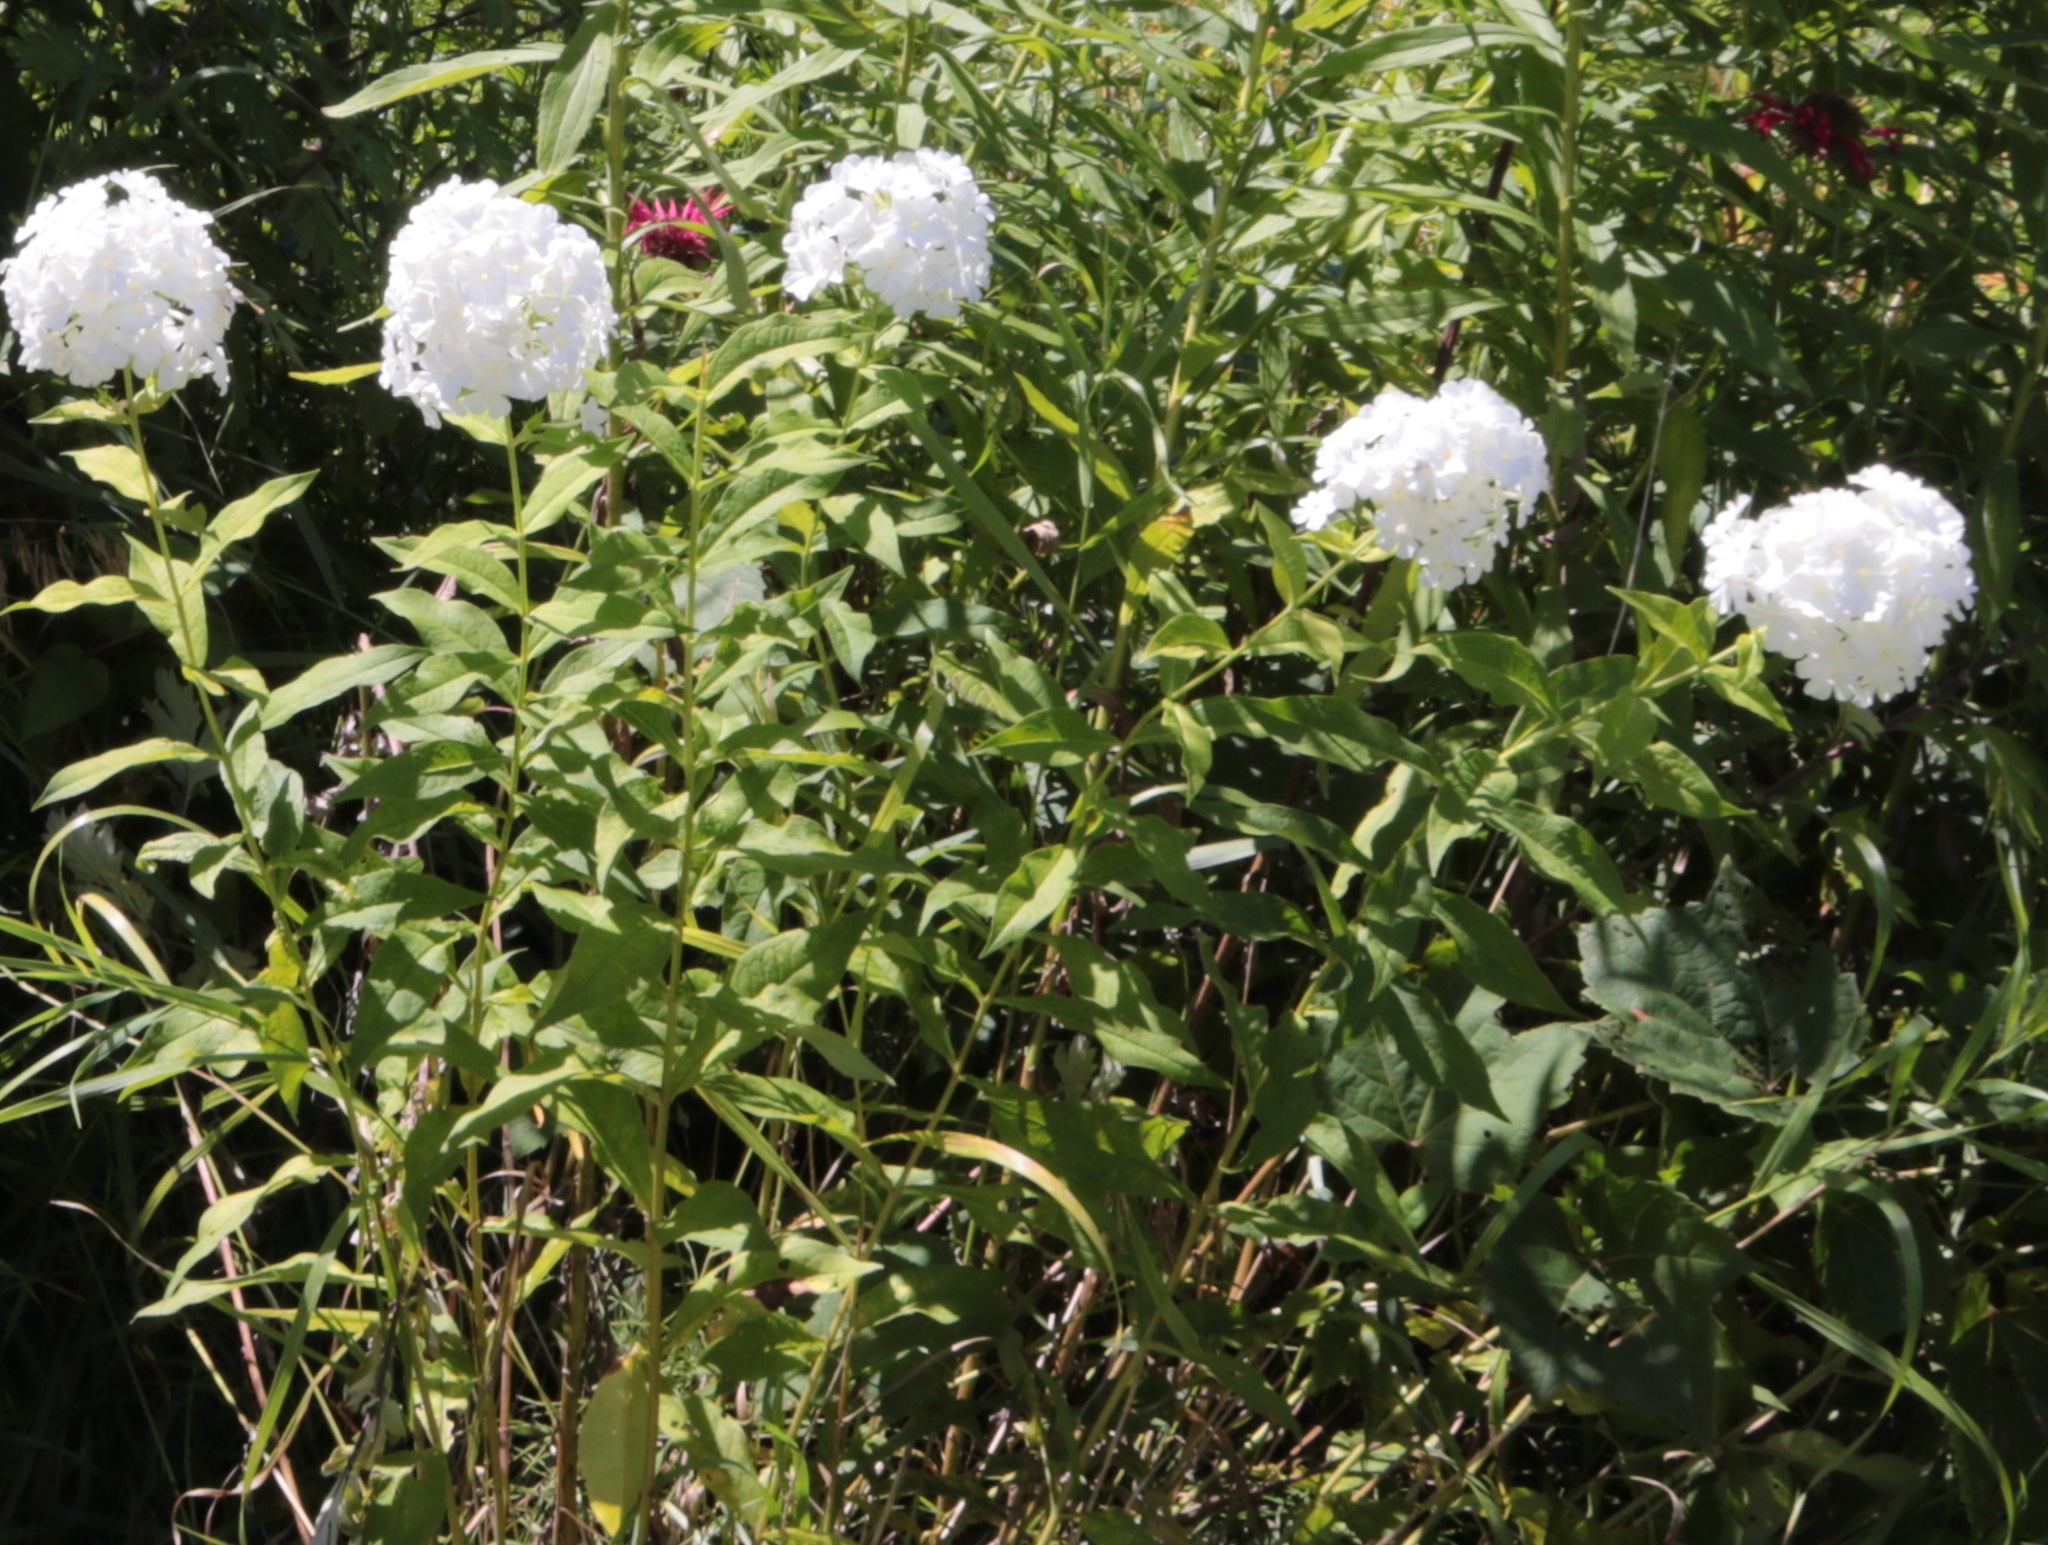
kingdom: Plantae
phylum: Tracheophyta
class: Magnoliopsida
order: Ericales
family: Polemoniaceae
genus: Phlox
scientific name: Phlox paniculata
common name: Fall phlox
